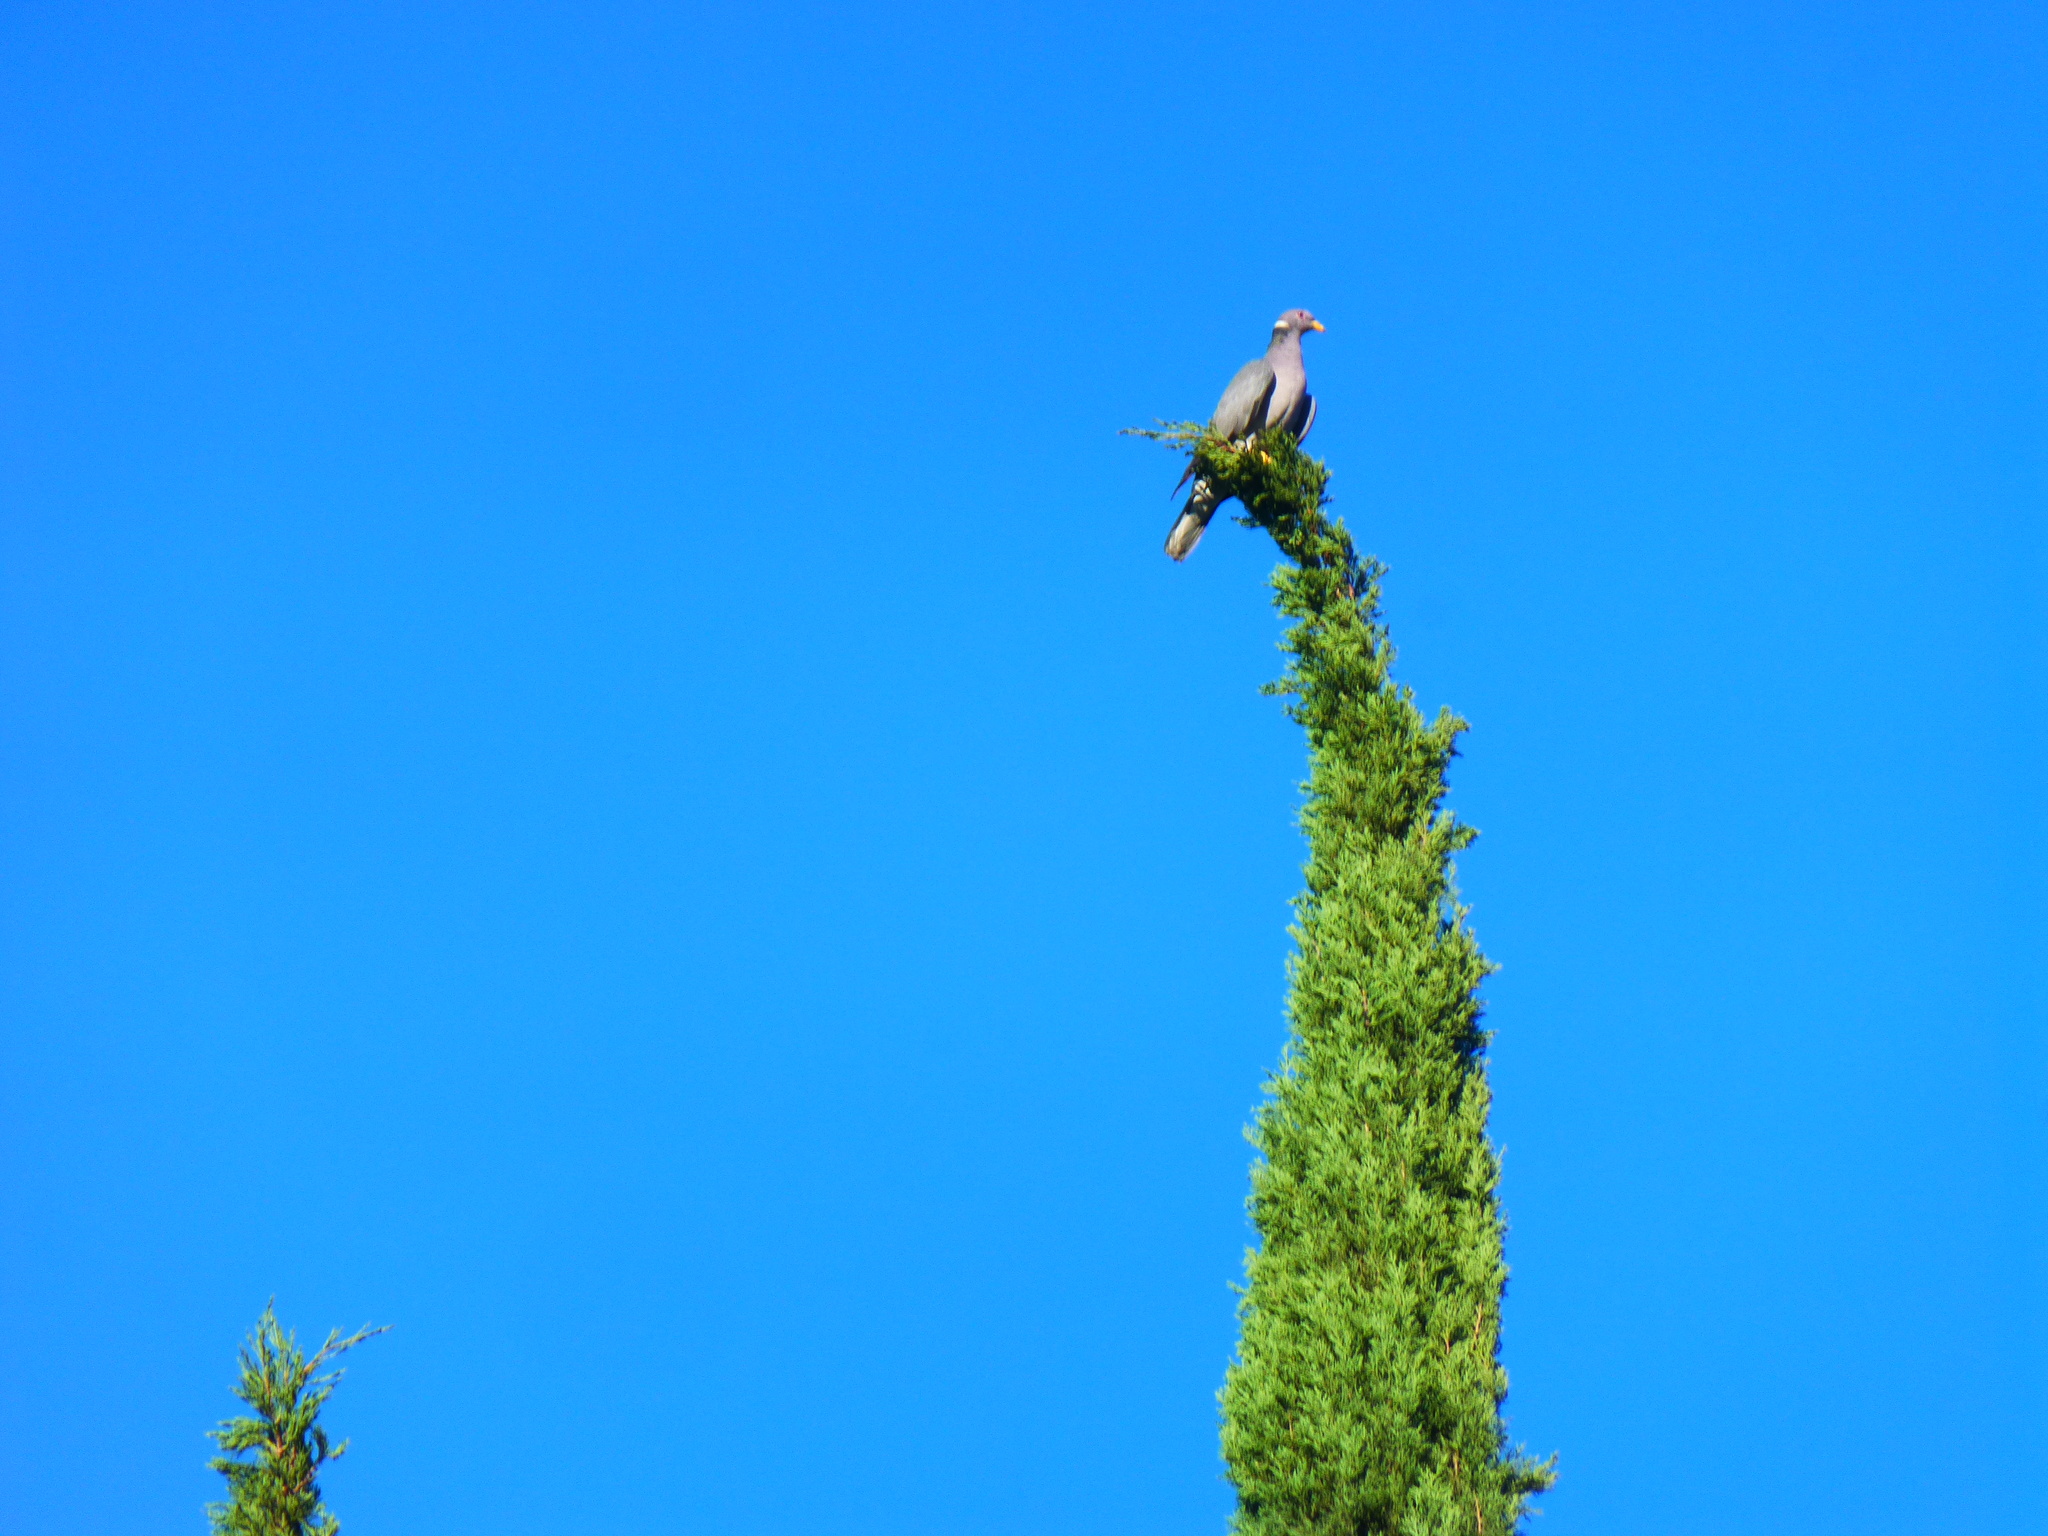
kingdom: Animalia
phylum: Chordata
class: Aves
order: Columbiformes
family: Columbidae
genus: Patagioenas
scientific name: Patagioenas fasciata
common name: Band-tailed pigeon
